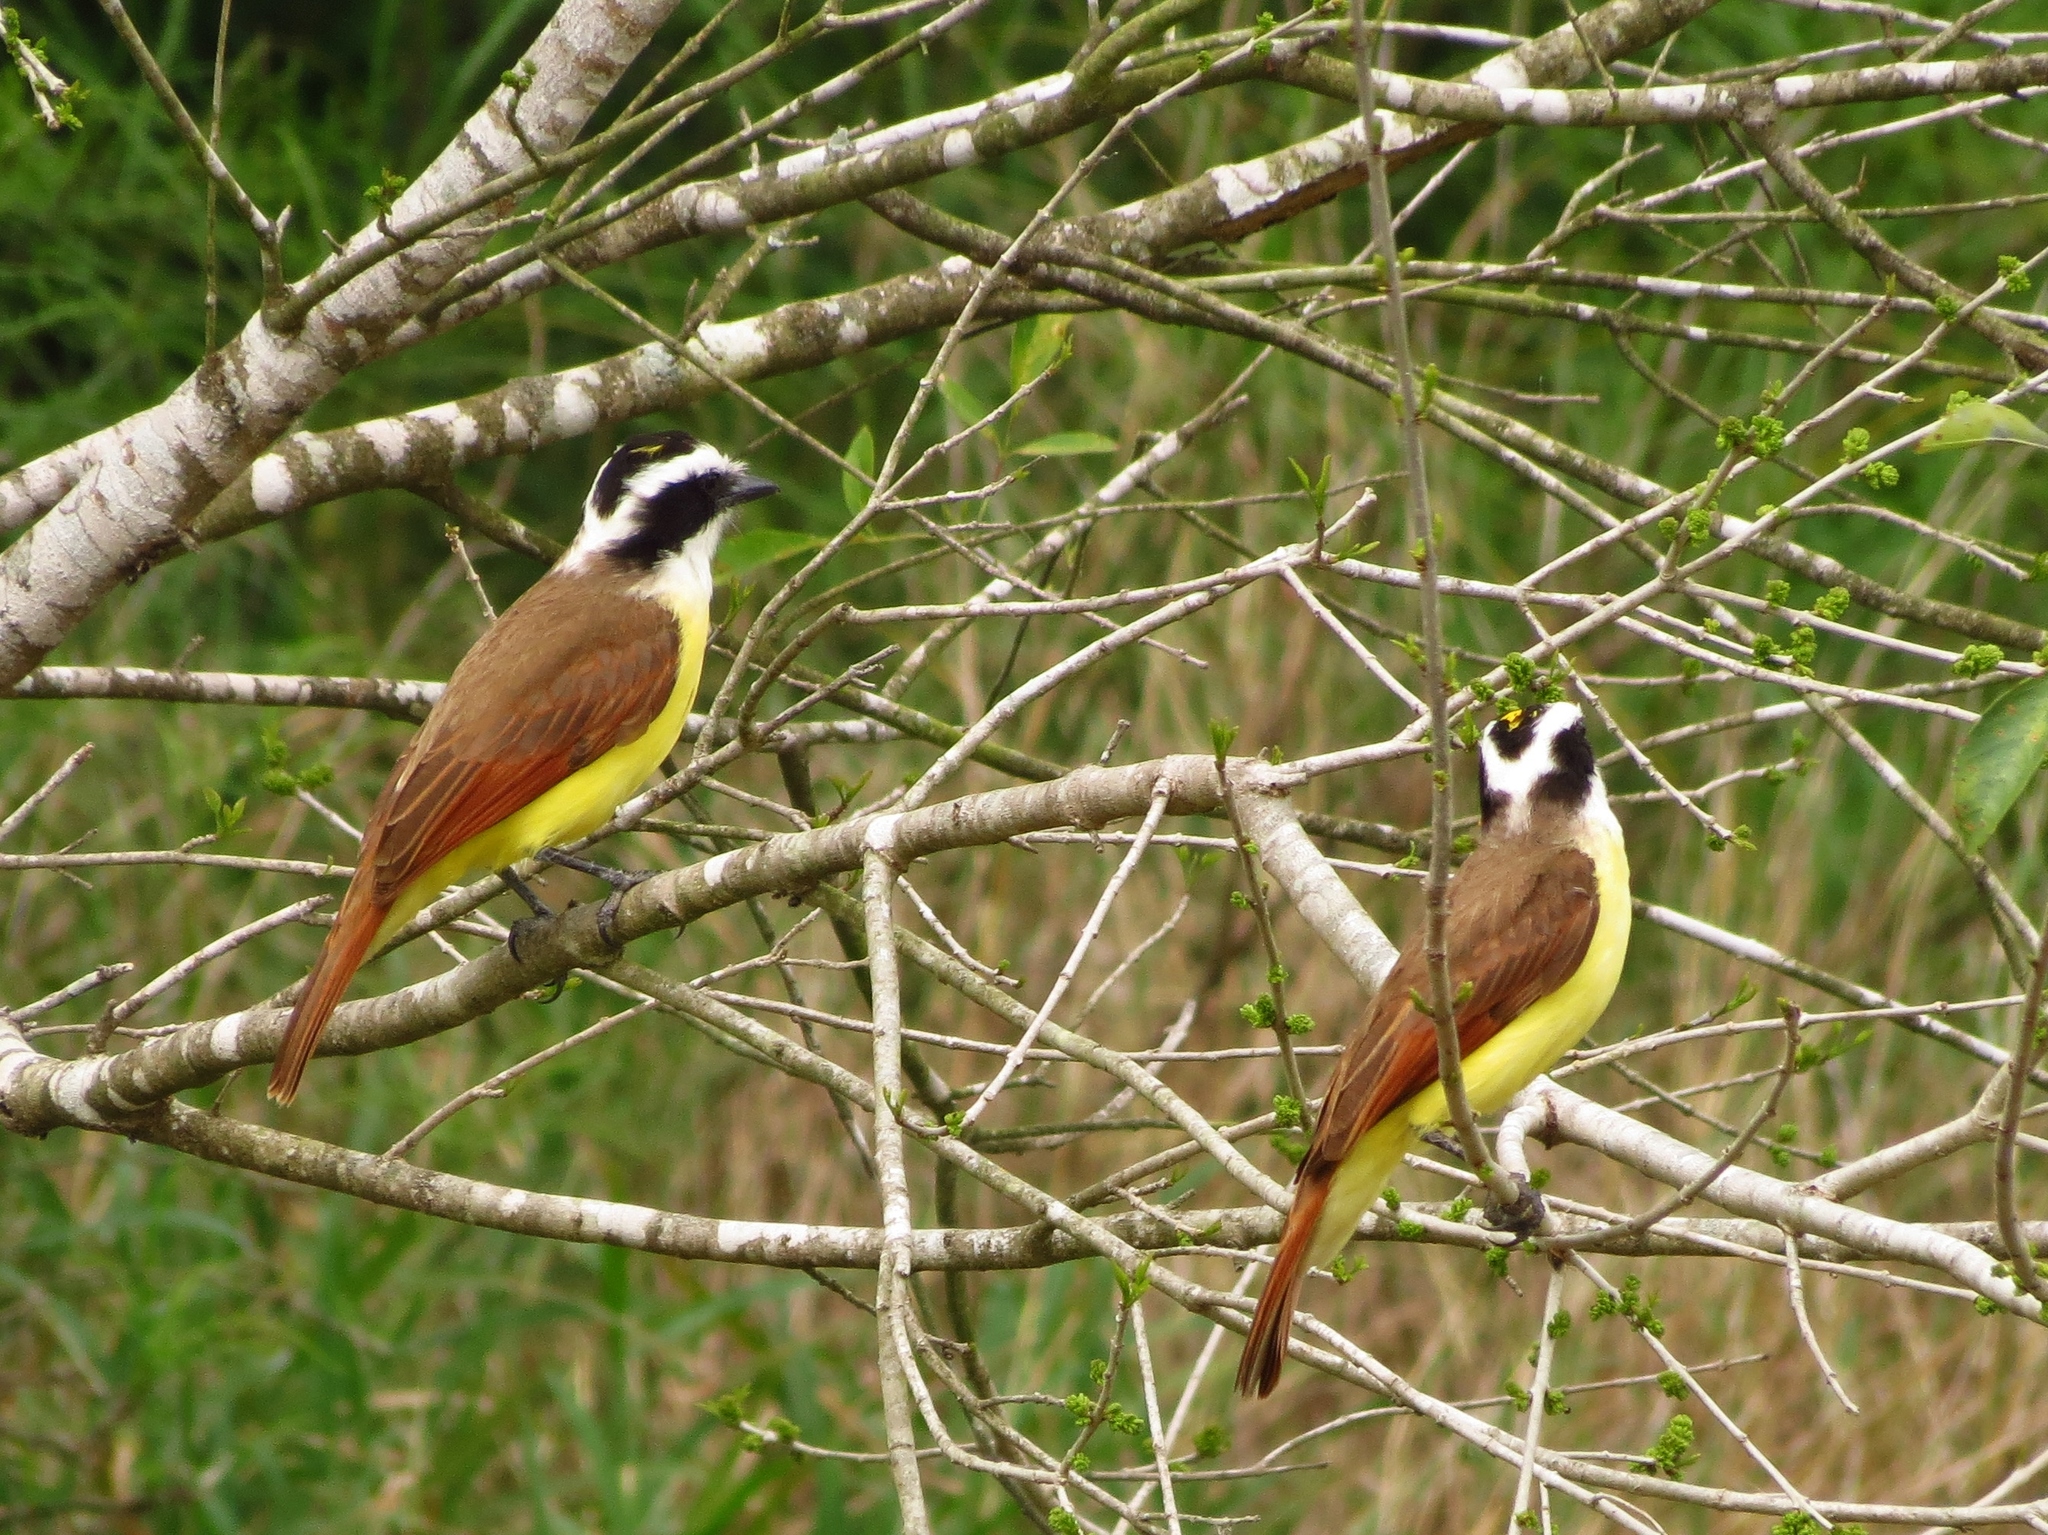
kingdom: Animalia
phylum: Chordata
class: Aves
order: Passeriformes
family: Tyrannidae
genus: Pitangus
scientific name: Pitangus sulphuratus
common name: Great kiskadee
